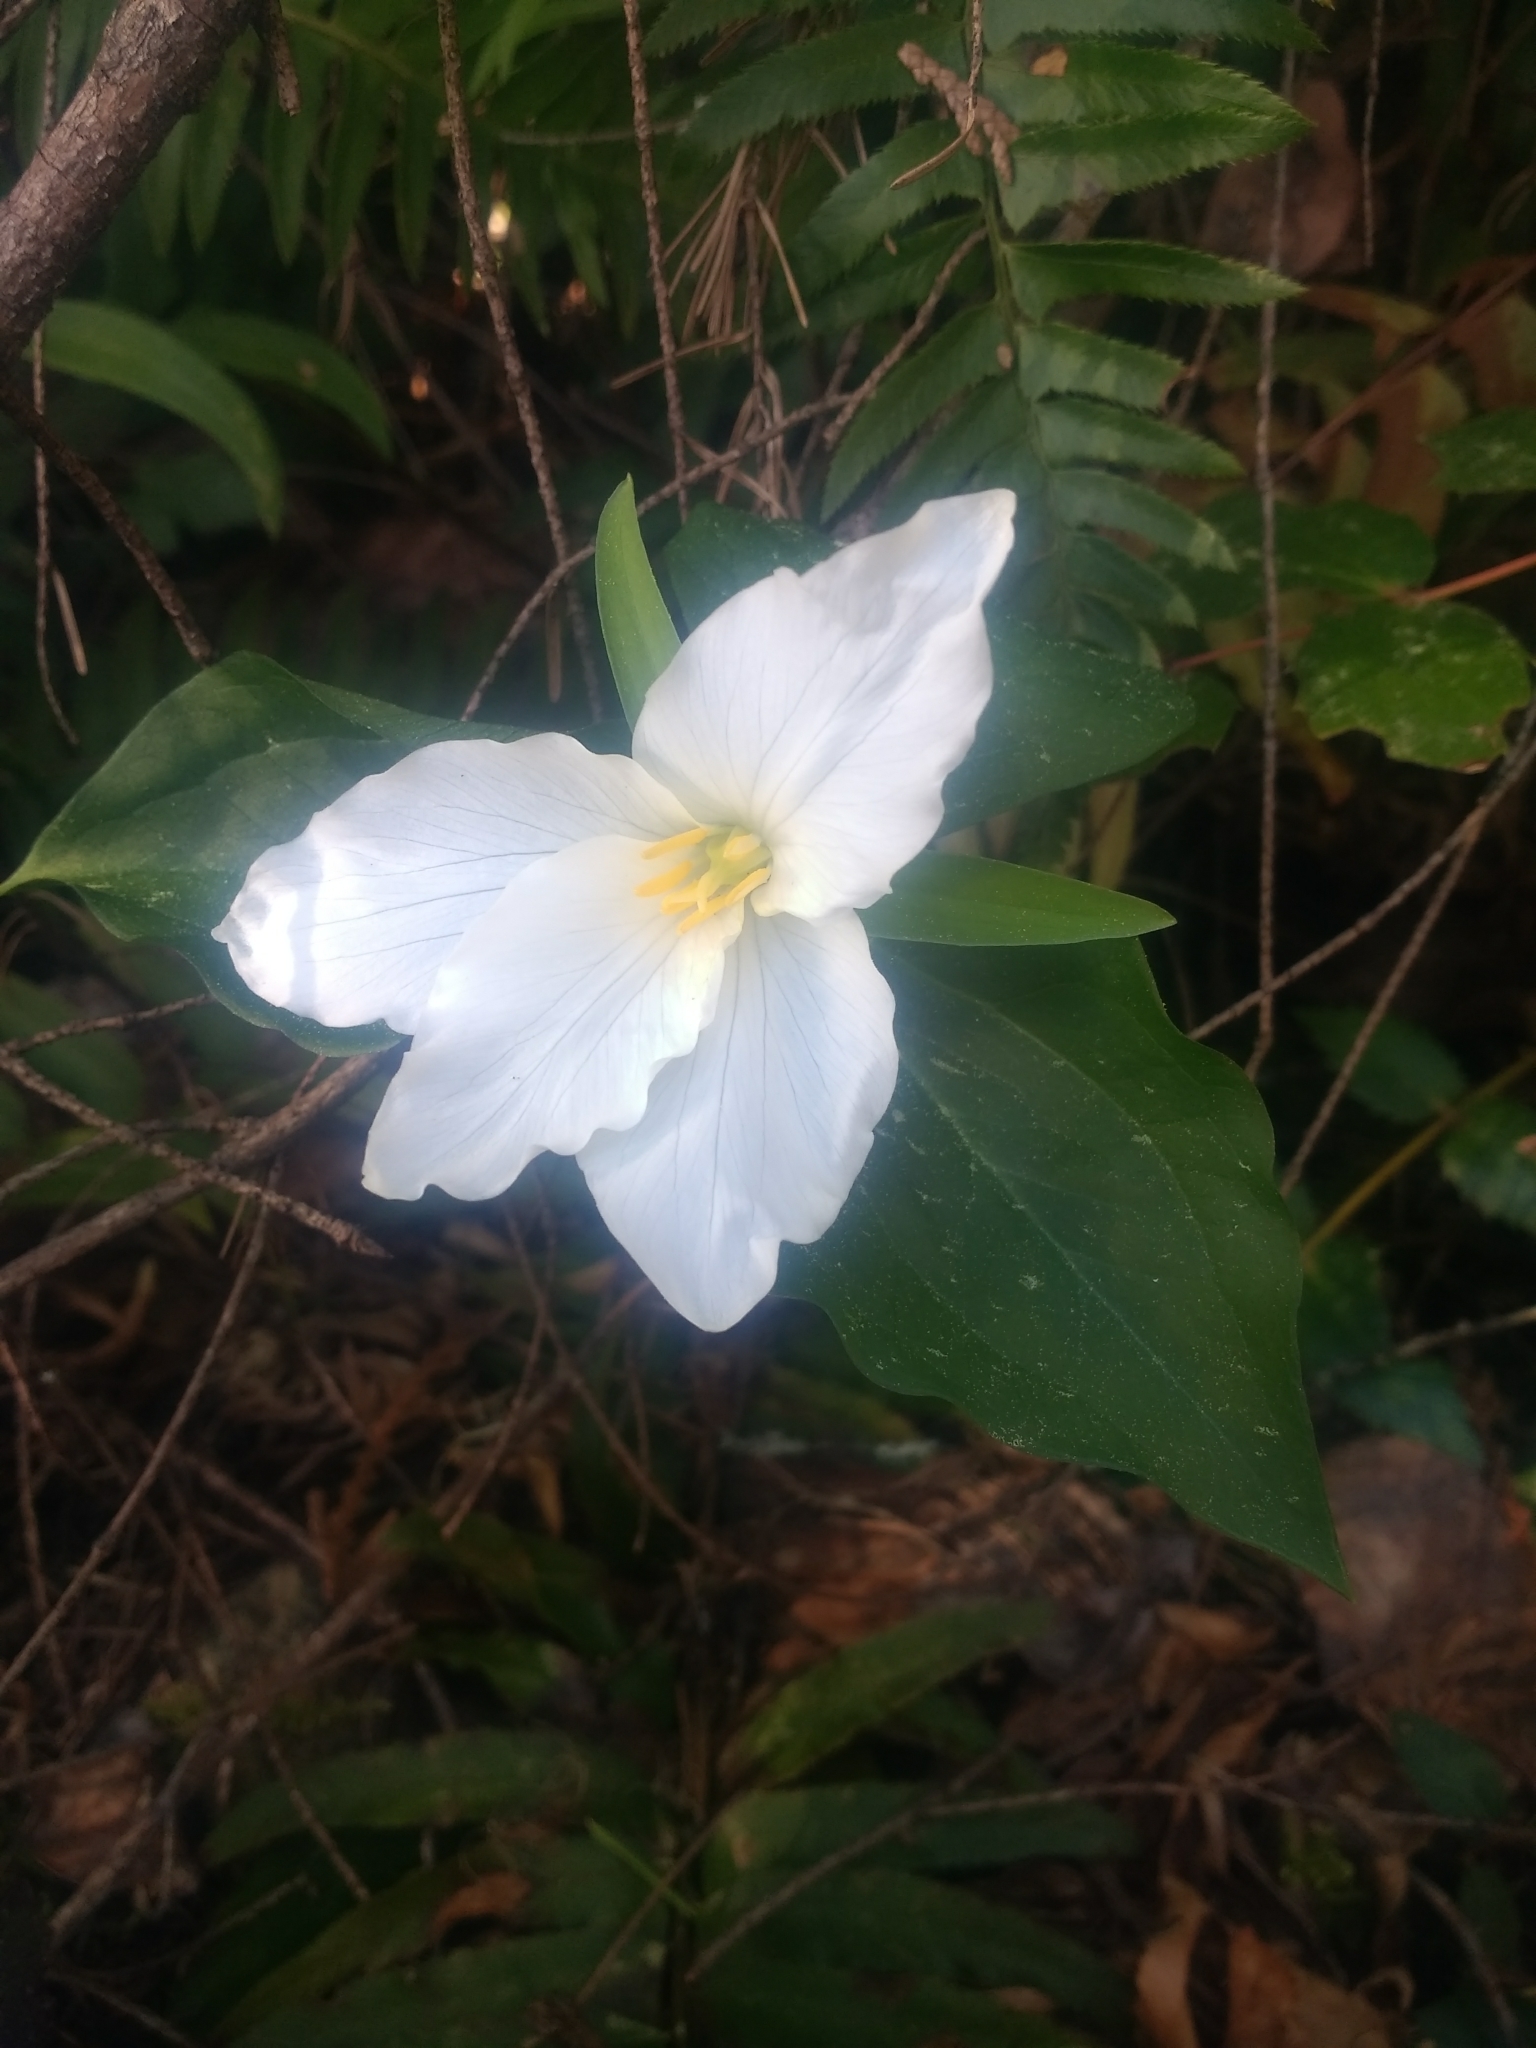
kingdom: Plantae
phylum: Tracheophyta
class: Liliopsida
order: Liliales
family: Melanthiaceae
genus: Trillium
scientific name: Trillium ovatum
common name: Pacific trillium
